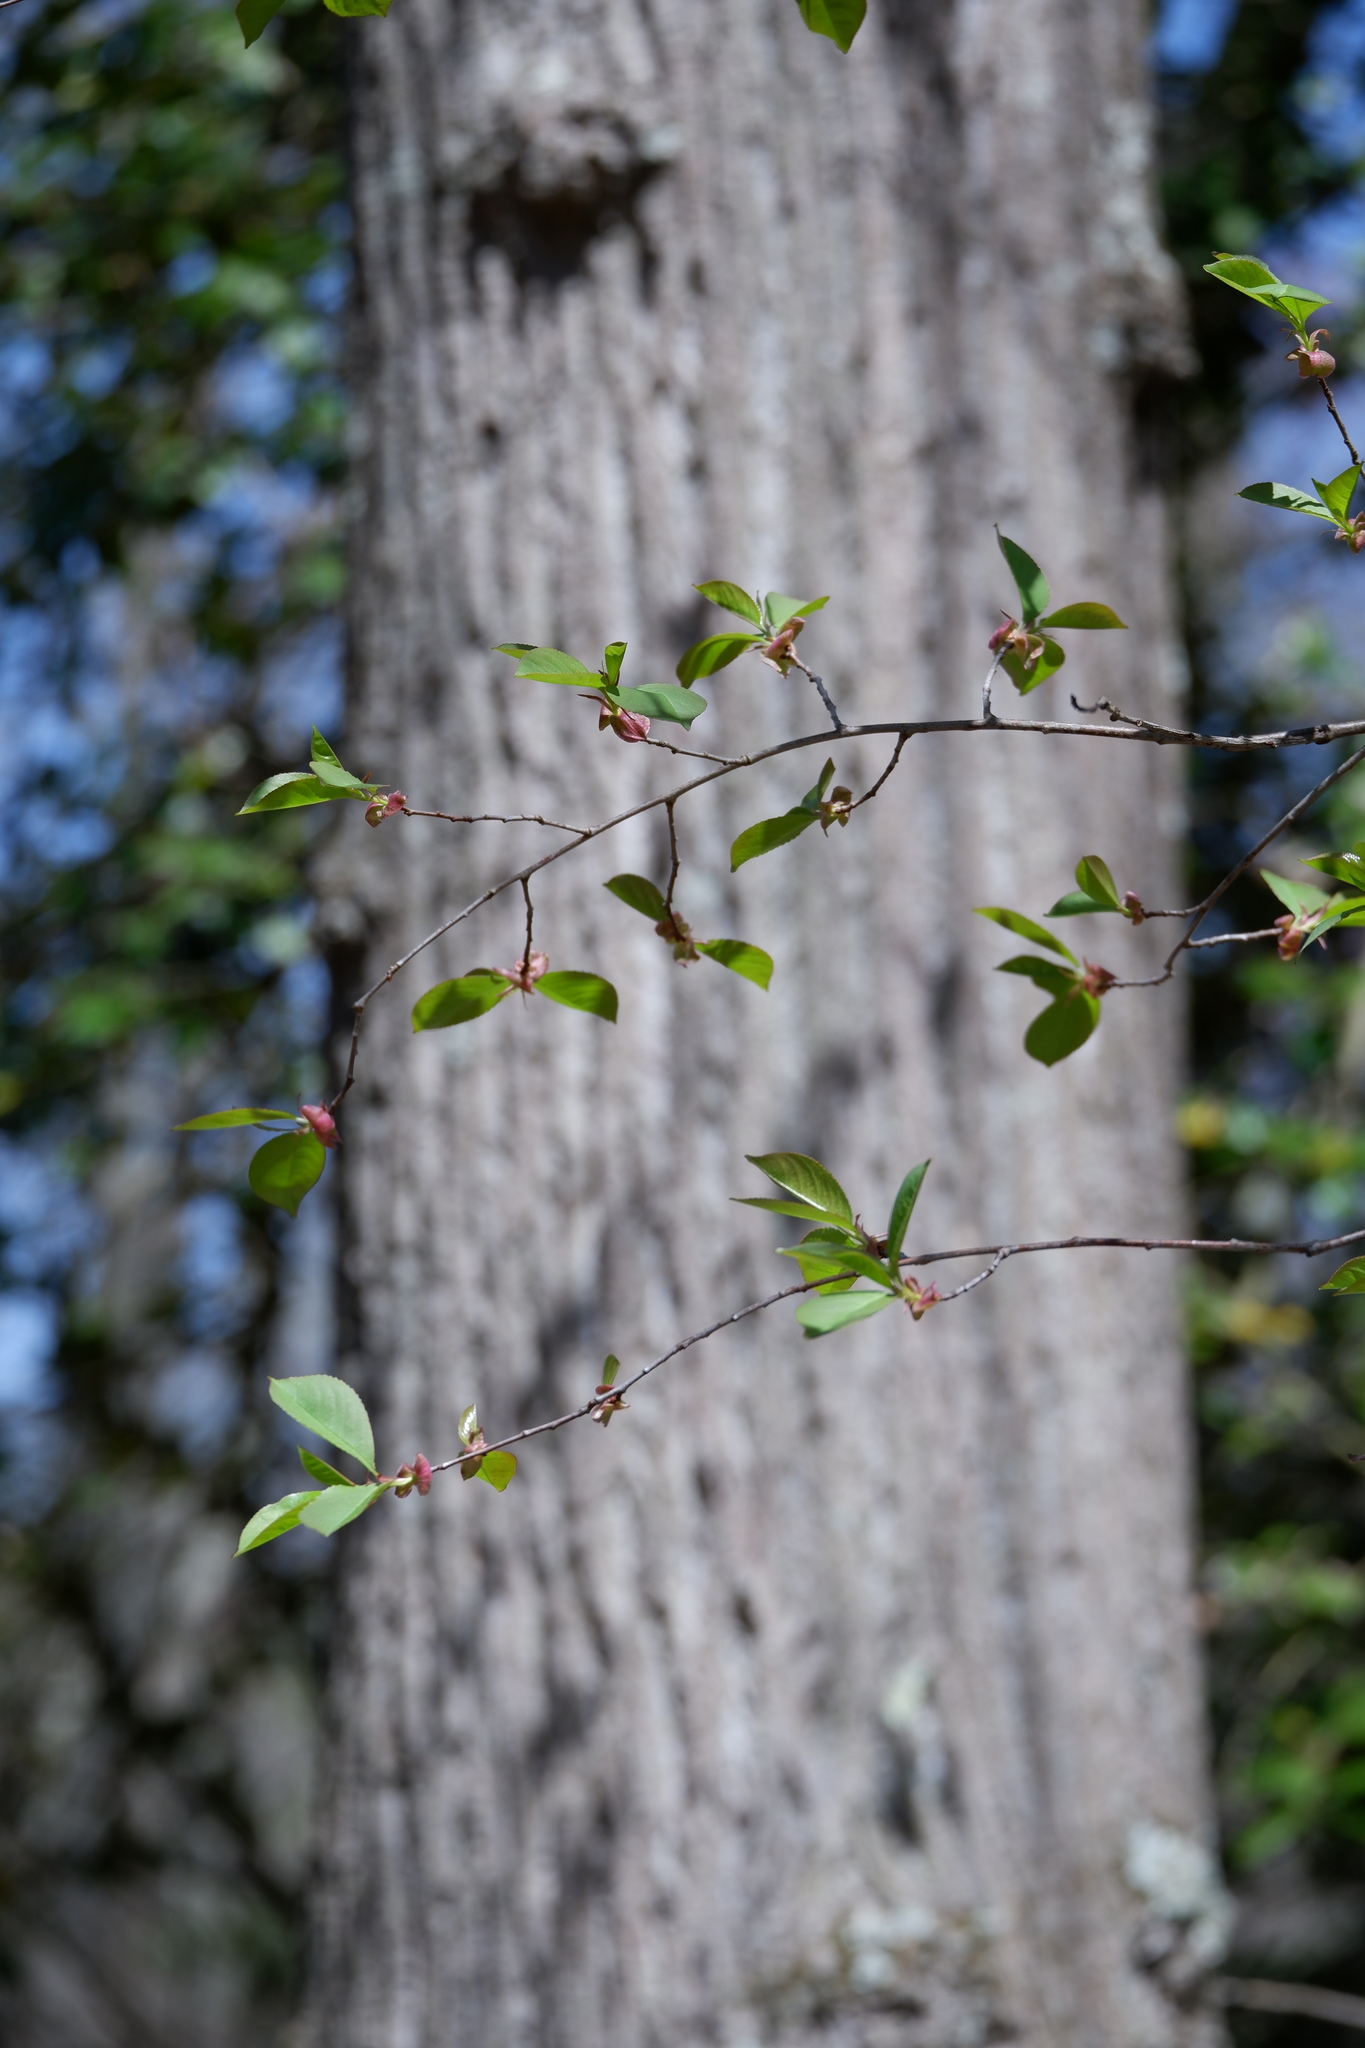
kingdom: Plantae
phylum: Tracheophyta
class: Magnoliopsida
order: Rosales
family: Rosaceae
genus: Prunus
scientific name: Prunus serotina
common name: Black cherry
